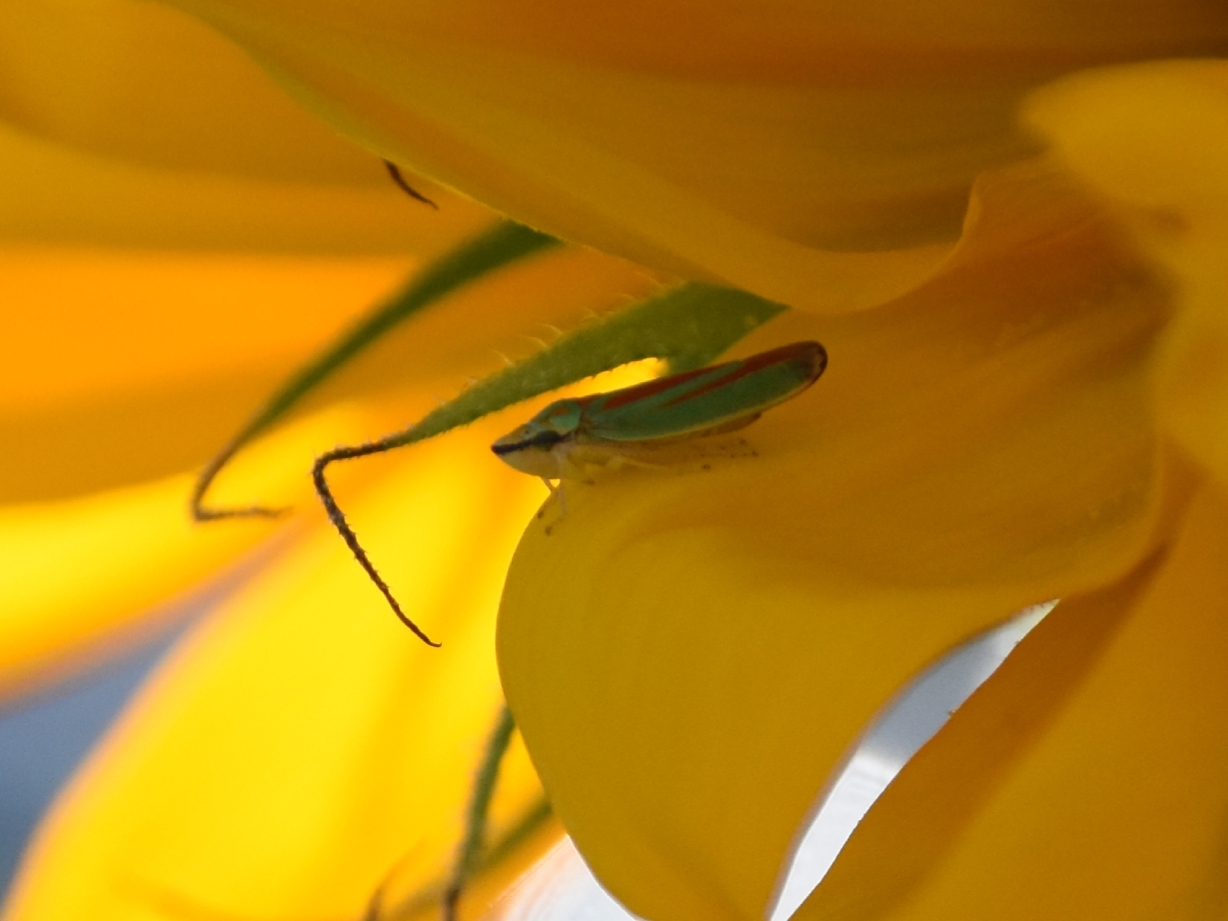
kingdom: Animalia
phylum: Arthropoda
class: Insecta
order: Hemiptera
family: Cicadellidae
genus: Graphocephala
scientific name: Graphocephala fennahi
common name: Rhododendron leafhopper
